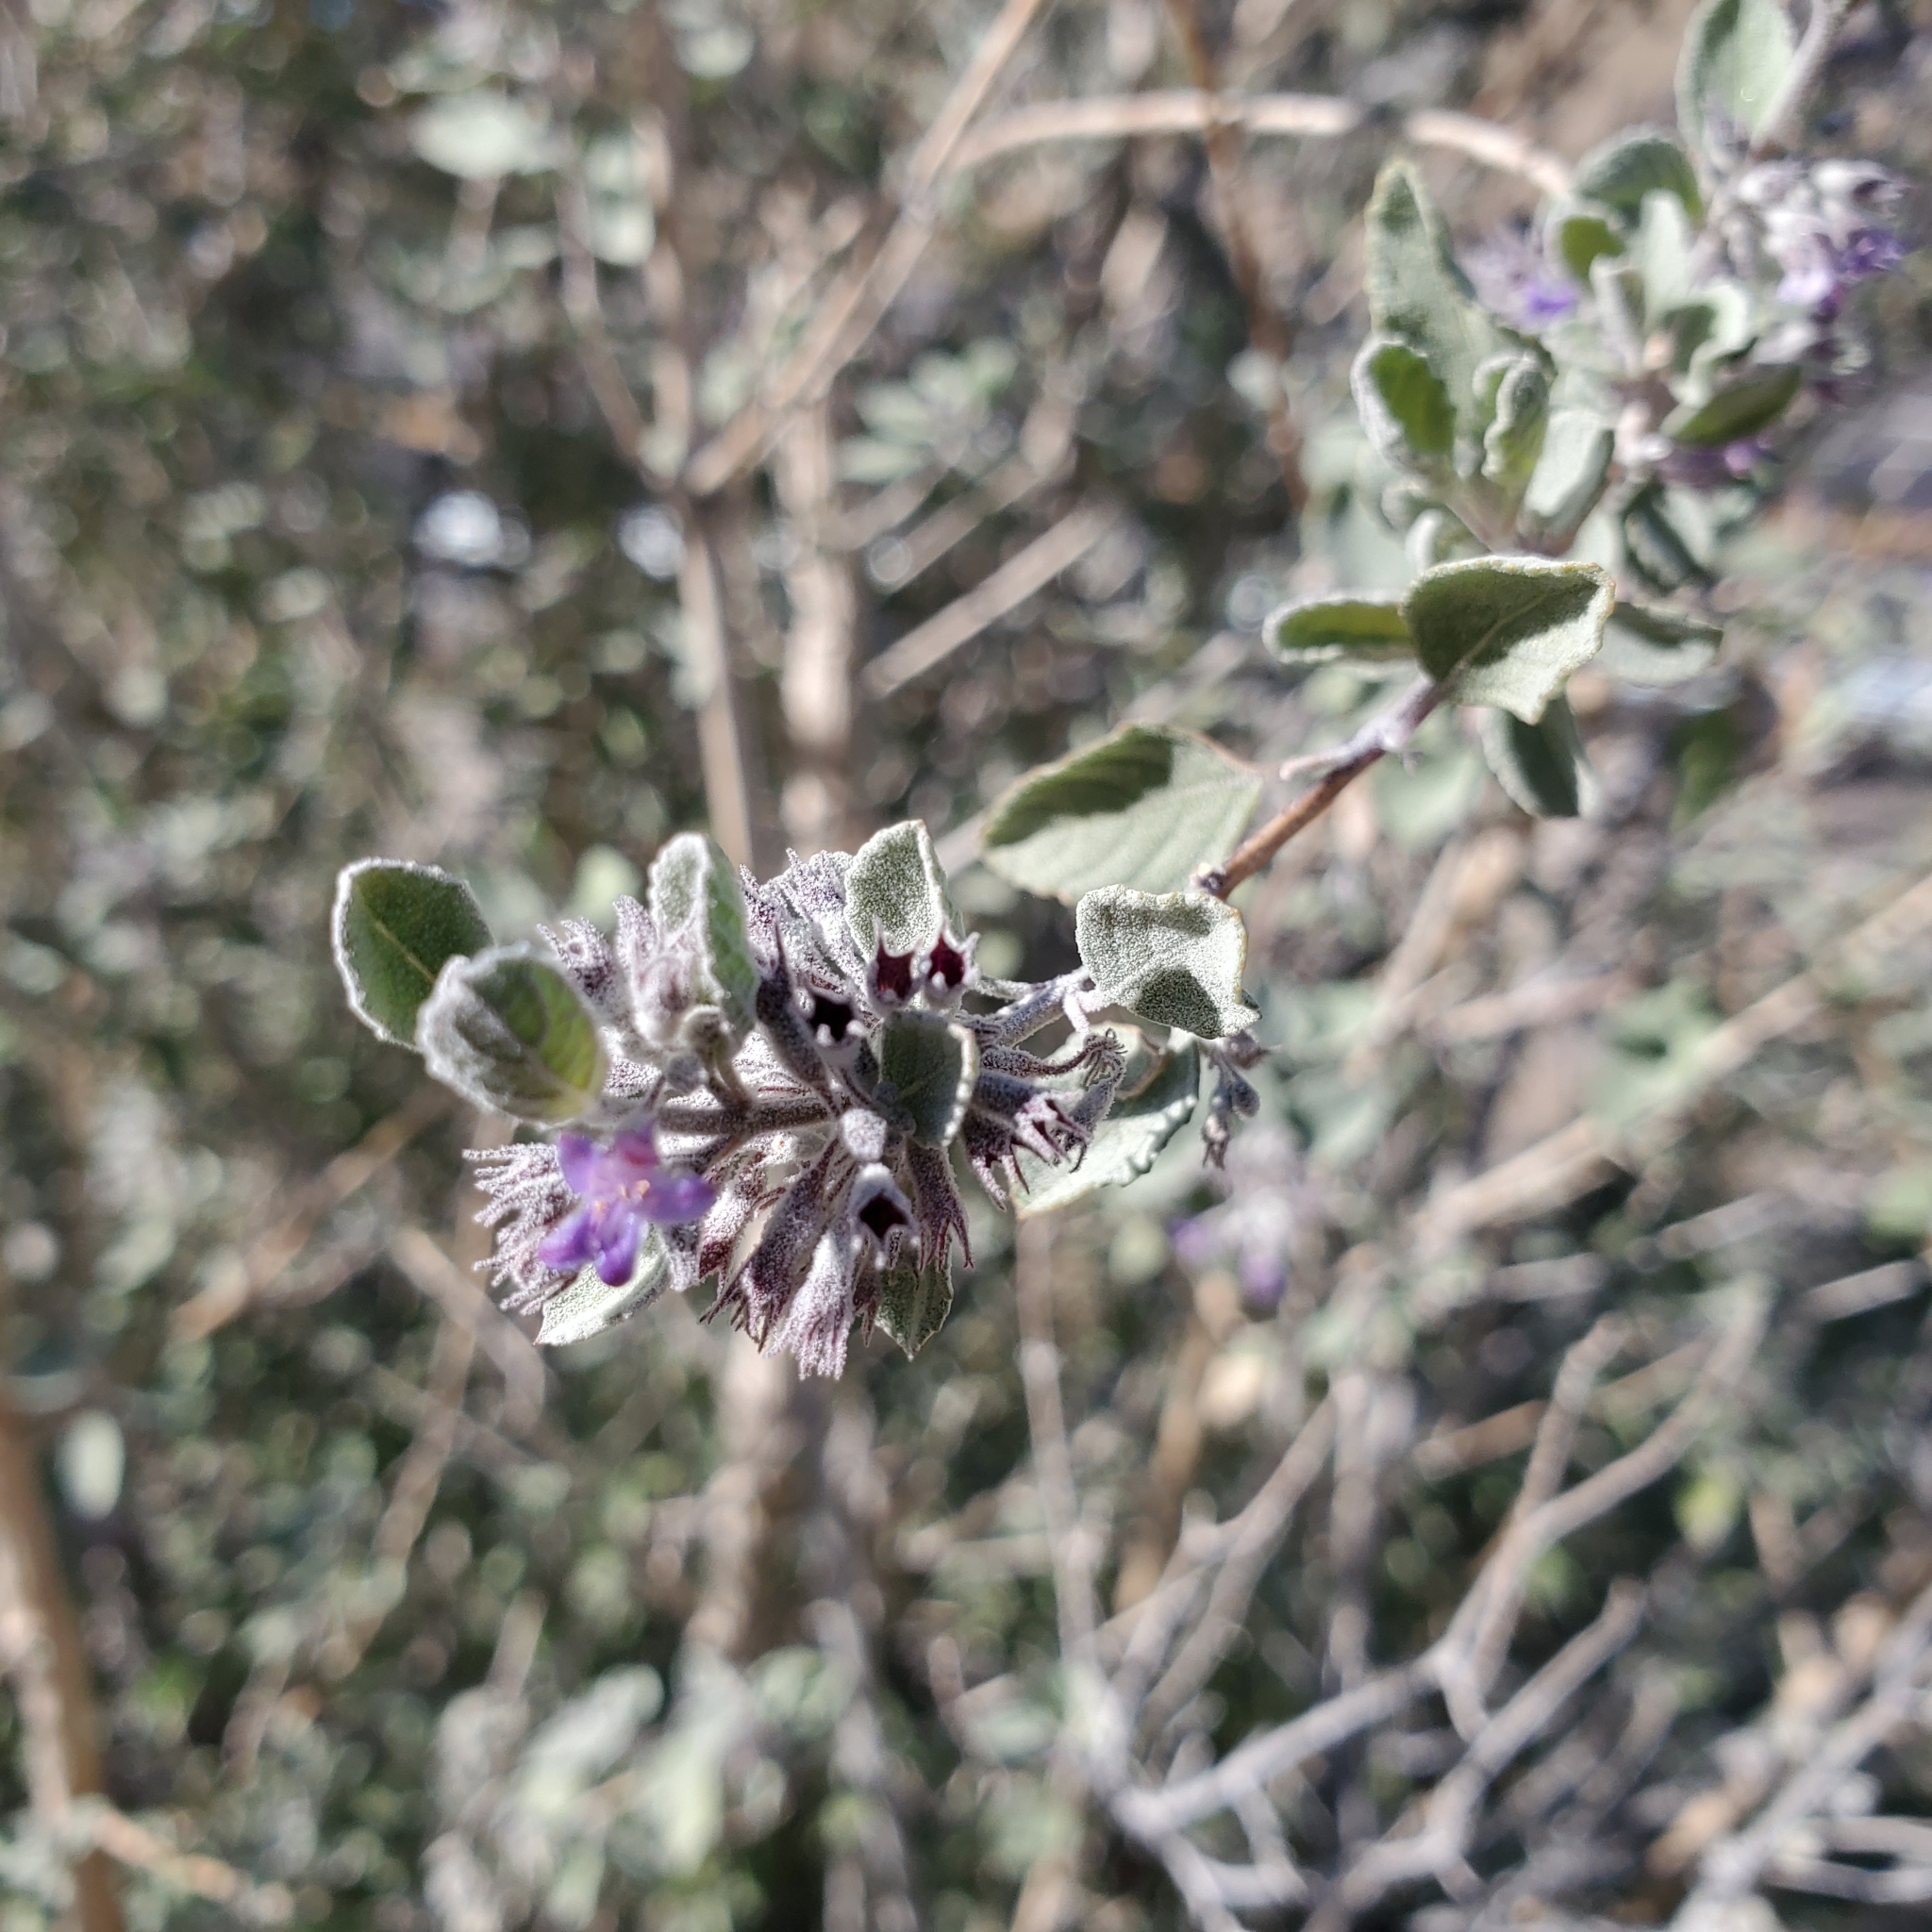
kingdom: Plantae
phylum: Tracheophyta
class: Magnoliopsida
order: Lamiales
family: Lamiaceae
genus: Condea
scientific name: Condea emoryi
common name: Chia
